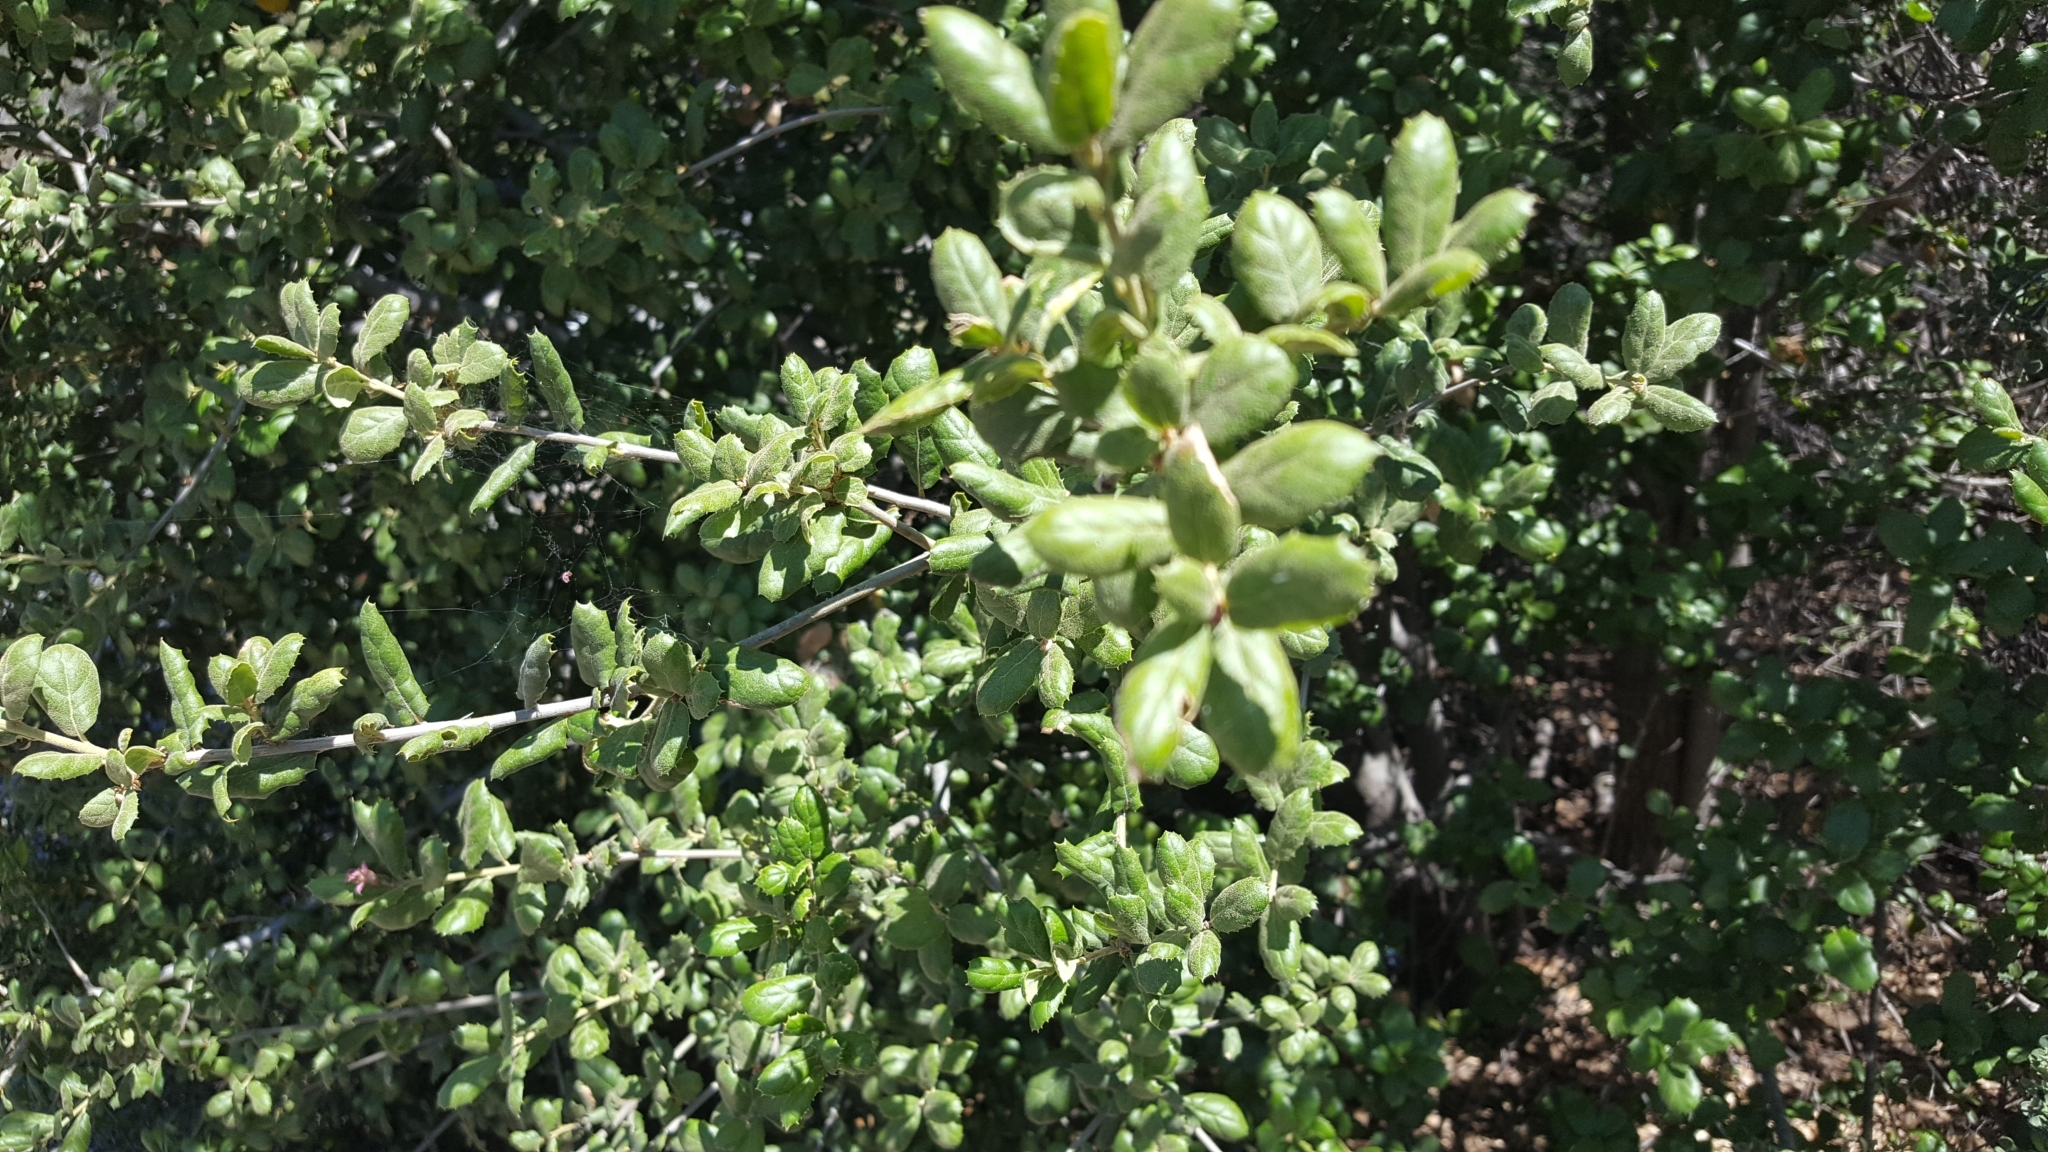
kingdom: Plantae
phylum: Tracheophyta
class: Magnoliopsida
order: Fagales
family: Fagaceae
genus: Quercus
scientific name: Quercus agrifolia
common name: California live oak
